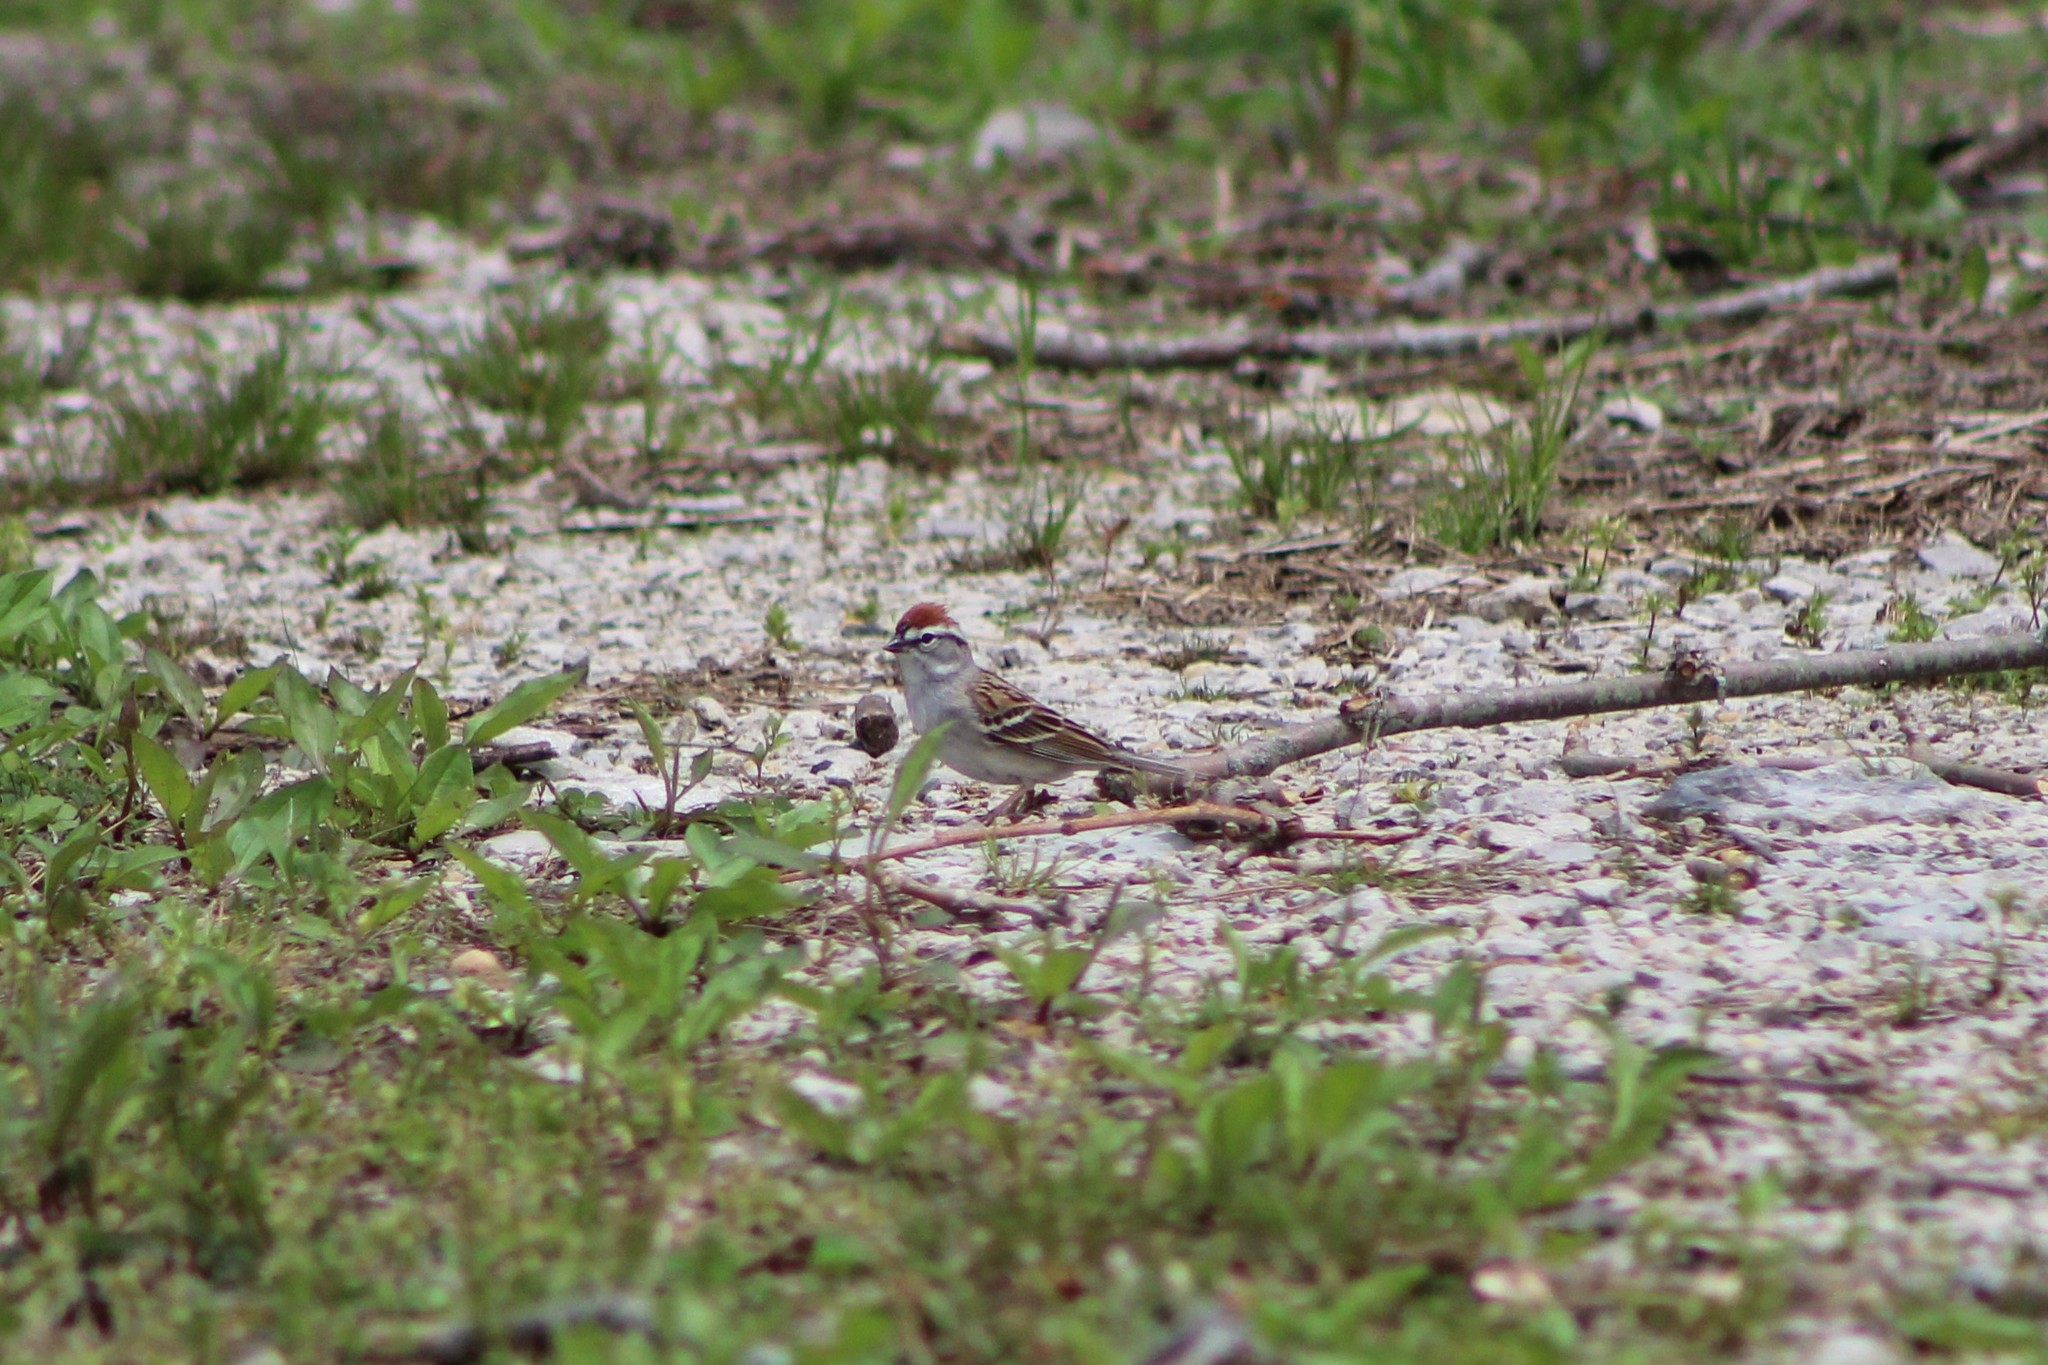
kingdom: Animalia
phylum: Chordata
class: Aves
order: Passeriformes
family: Passerellidae
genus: Spizella
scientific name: Spizella passerina
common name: Chipping sparrow
